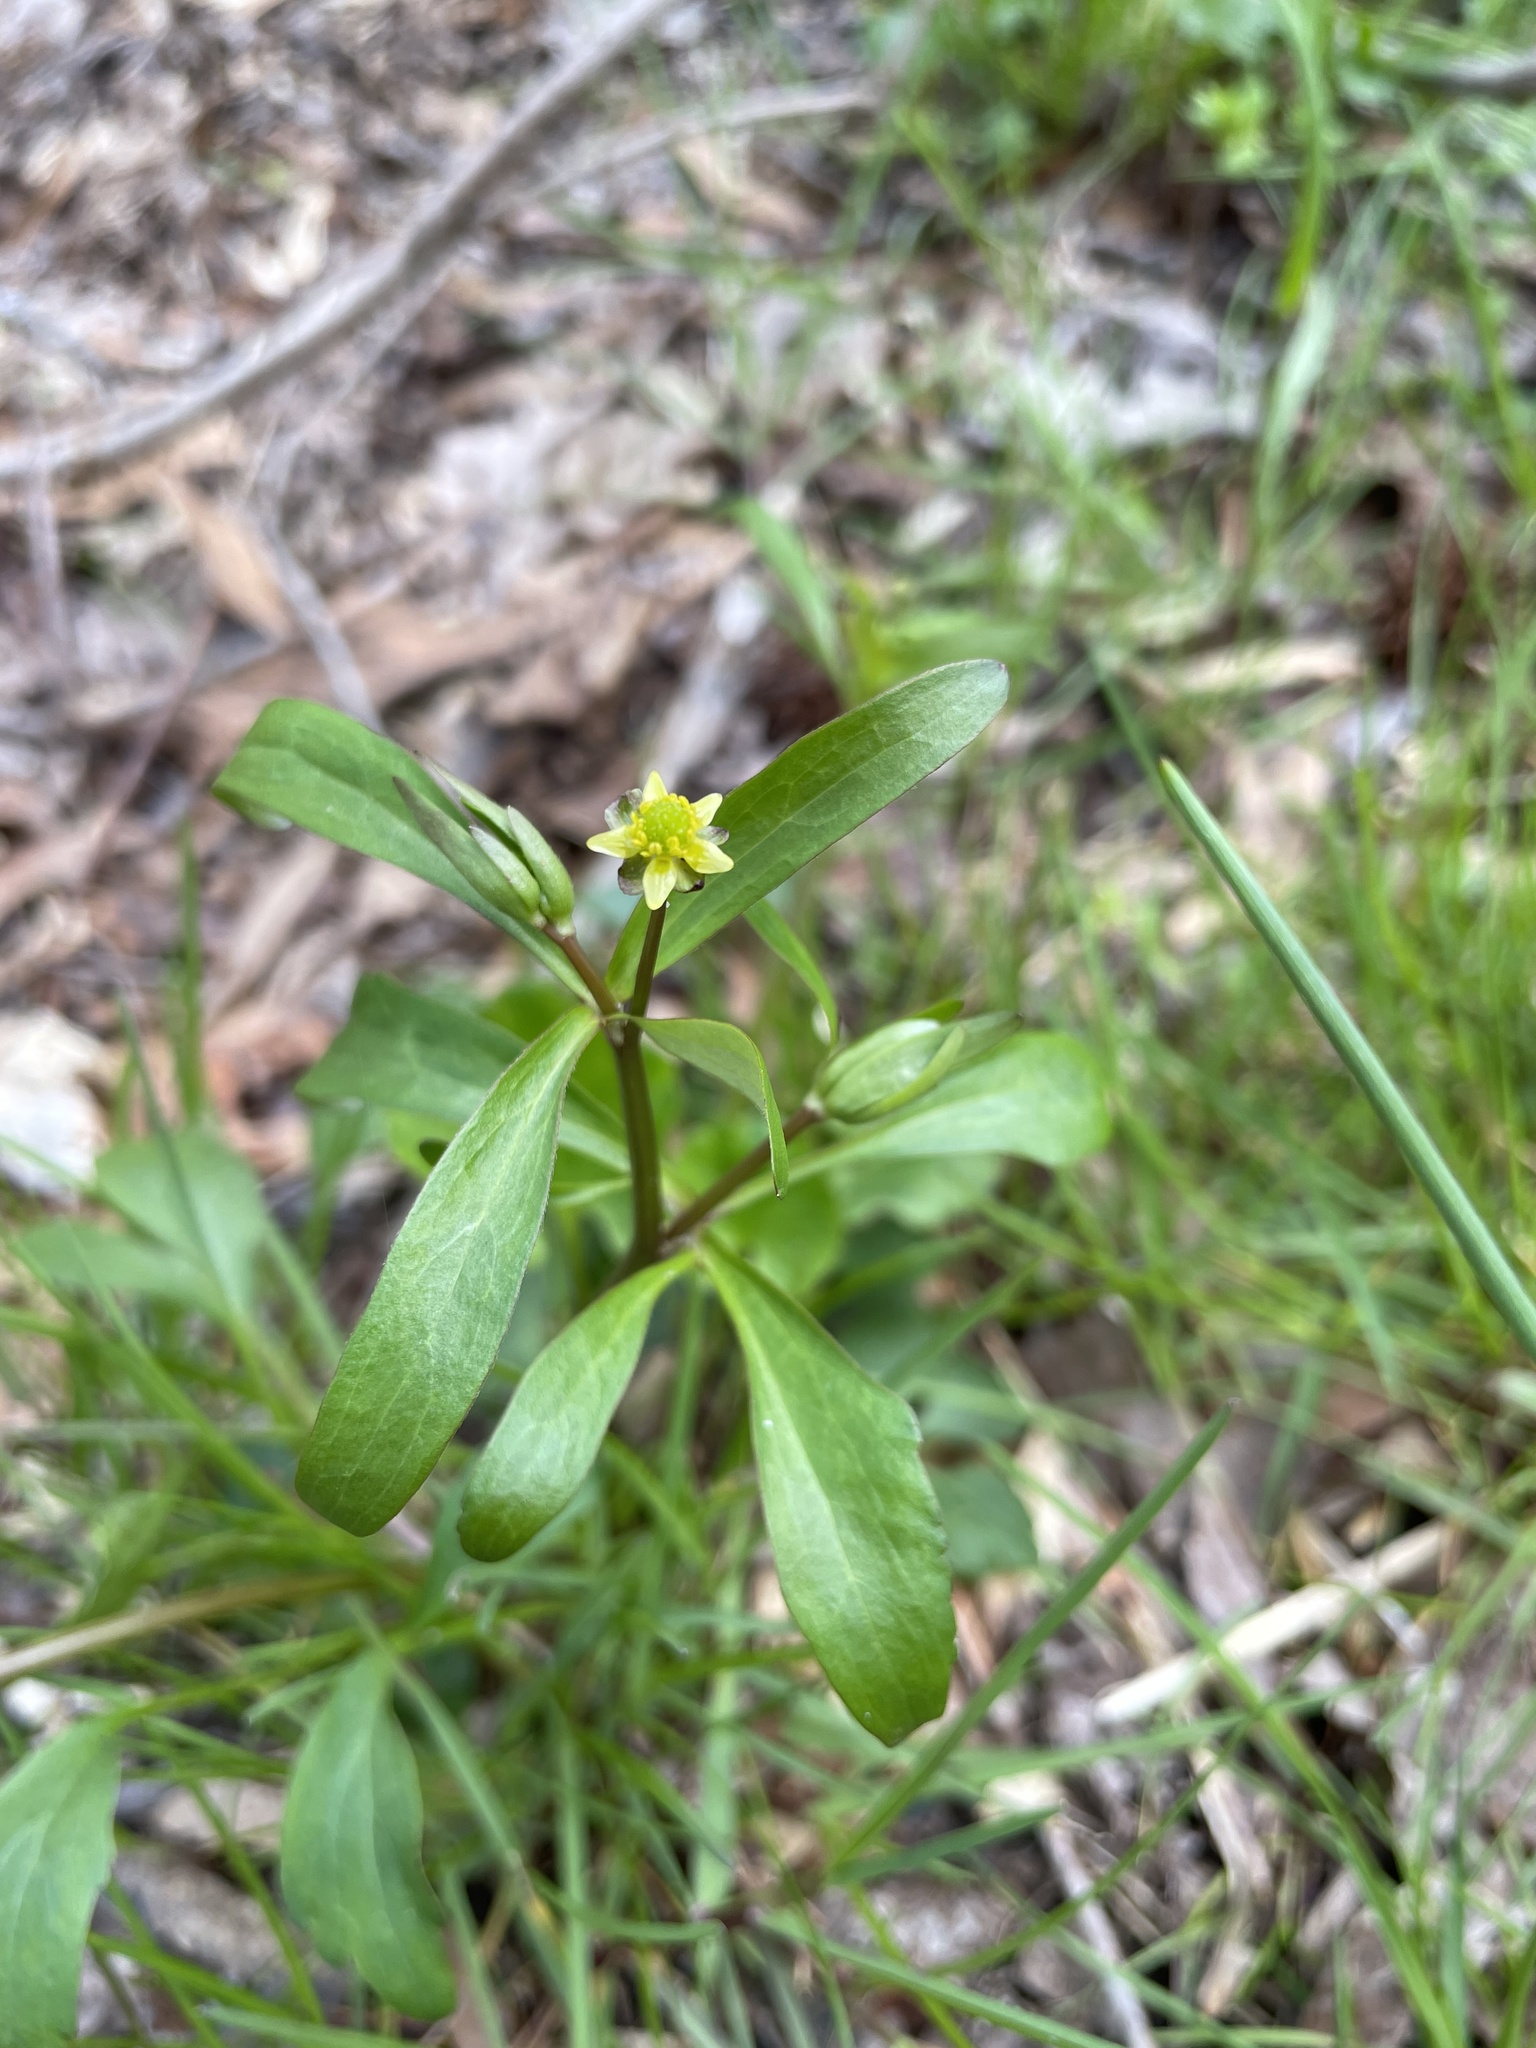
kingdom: Plantae
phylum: Tracheophyta
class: Magnoliopsida
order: Ranunculales
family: Ranunculaceae
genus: Ranunculus
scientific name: Ranunculus abortivus
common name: Early wood buttercup
